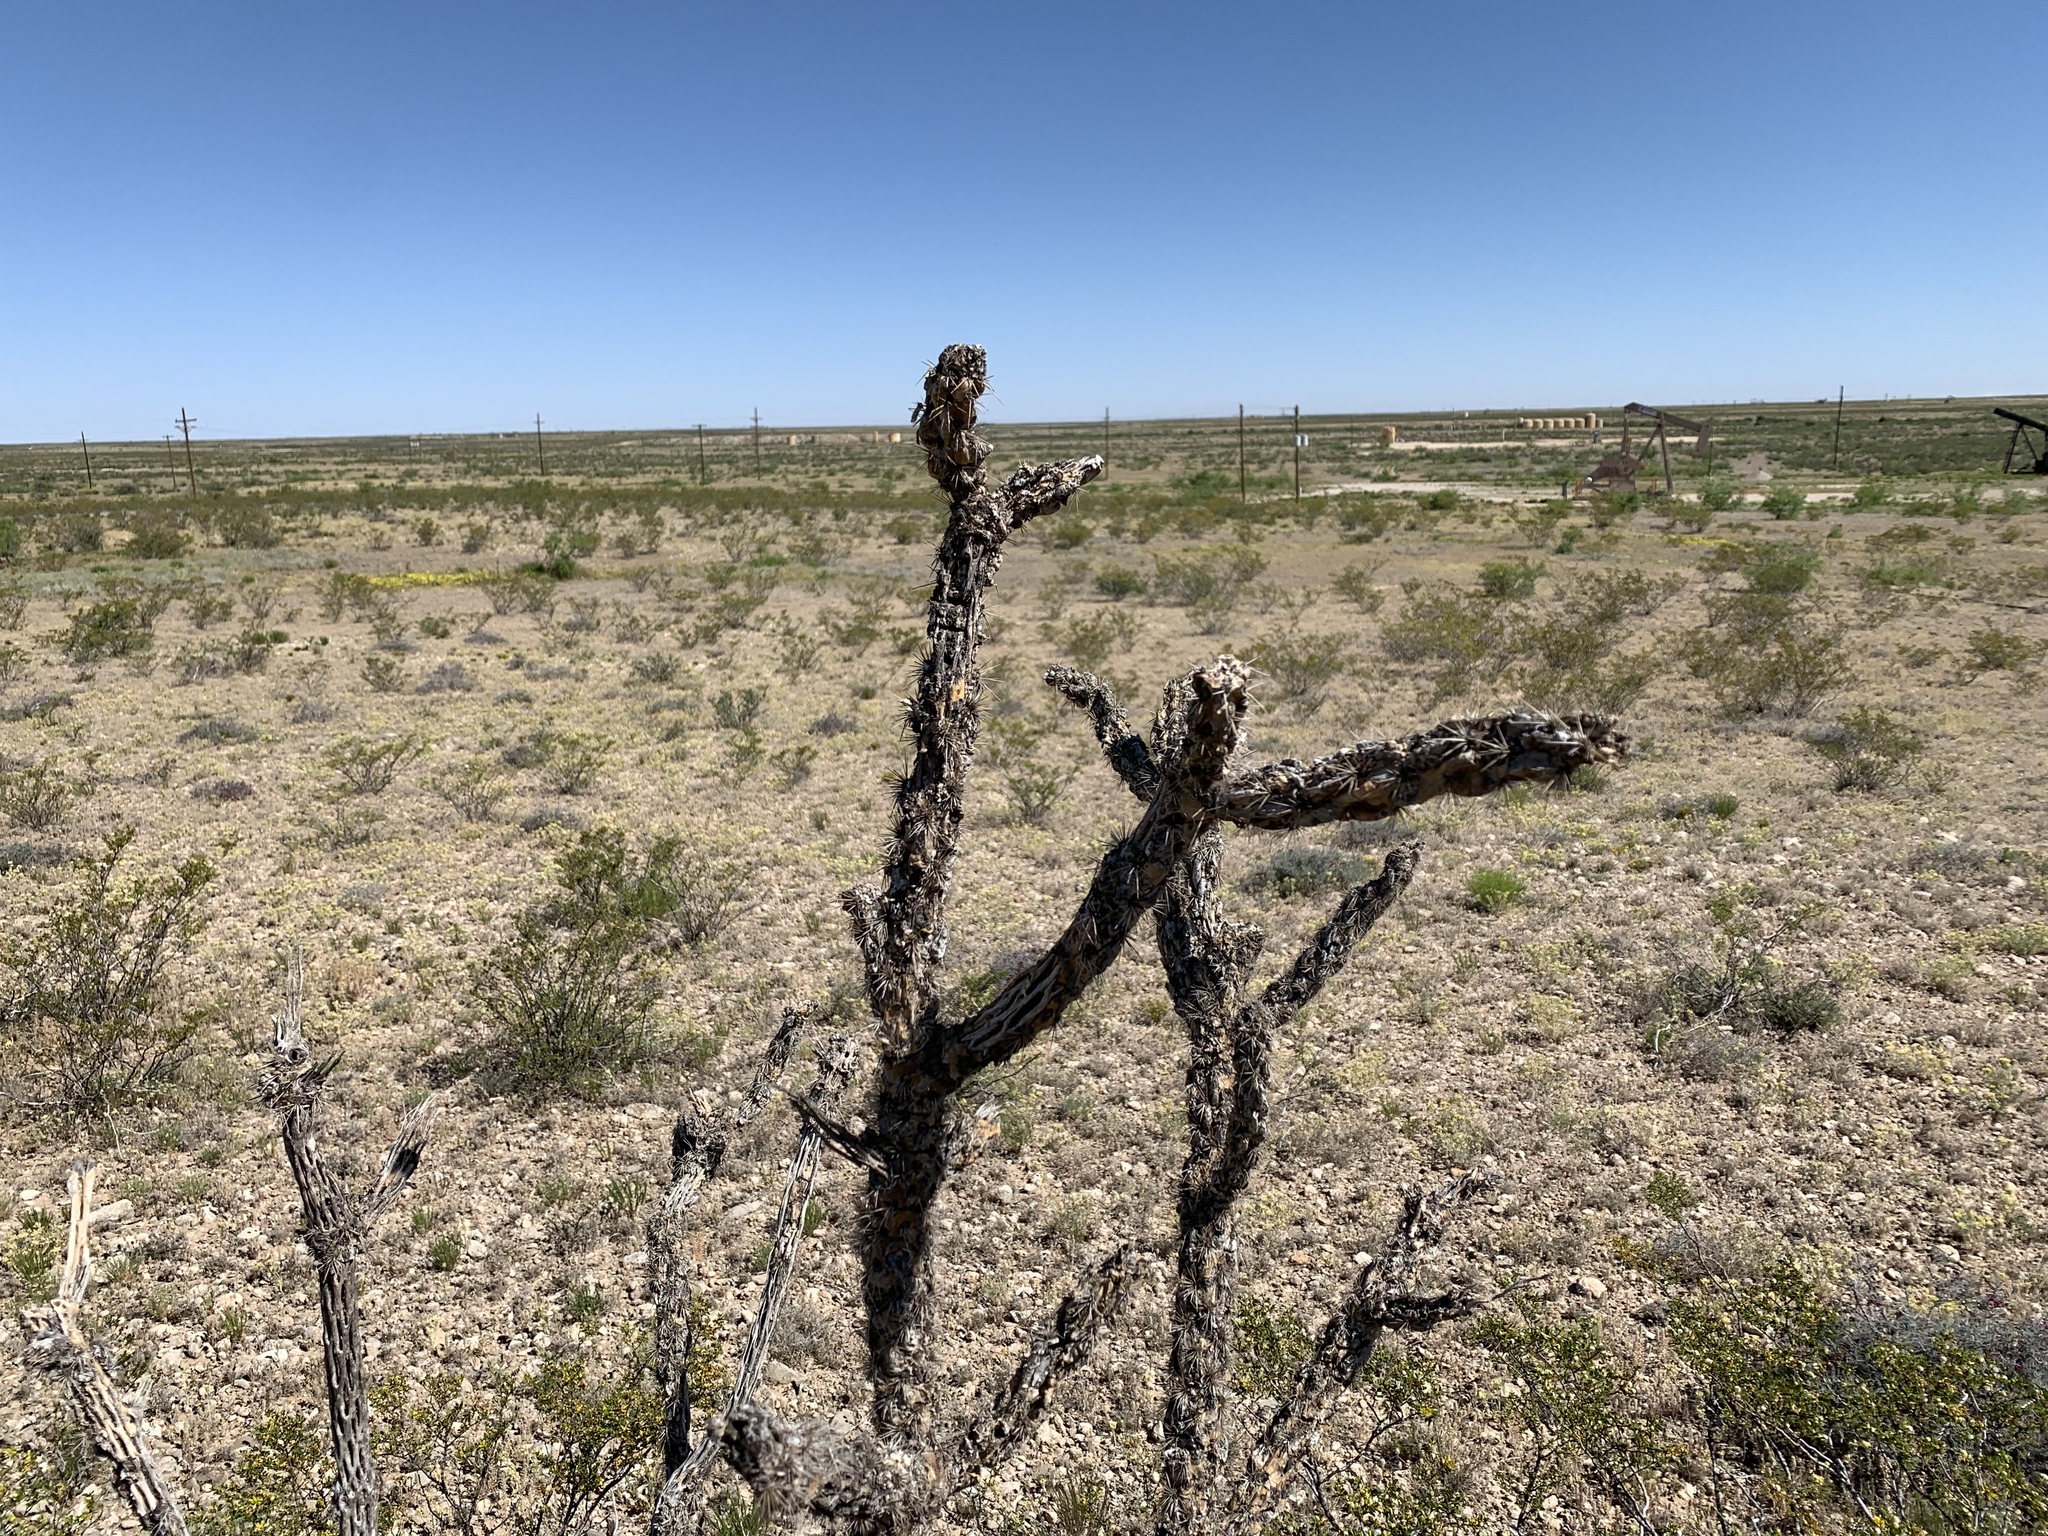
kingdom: Plantae
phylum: Tracheophyta
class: Magnoliopsida
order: Caryophyllales
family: Cactaceae
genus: Cylindropuntia
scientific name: Cylindropuntia imbricata
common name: Candelabrum cactus
